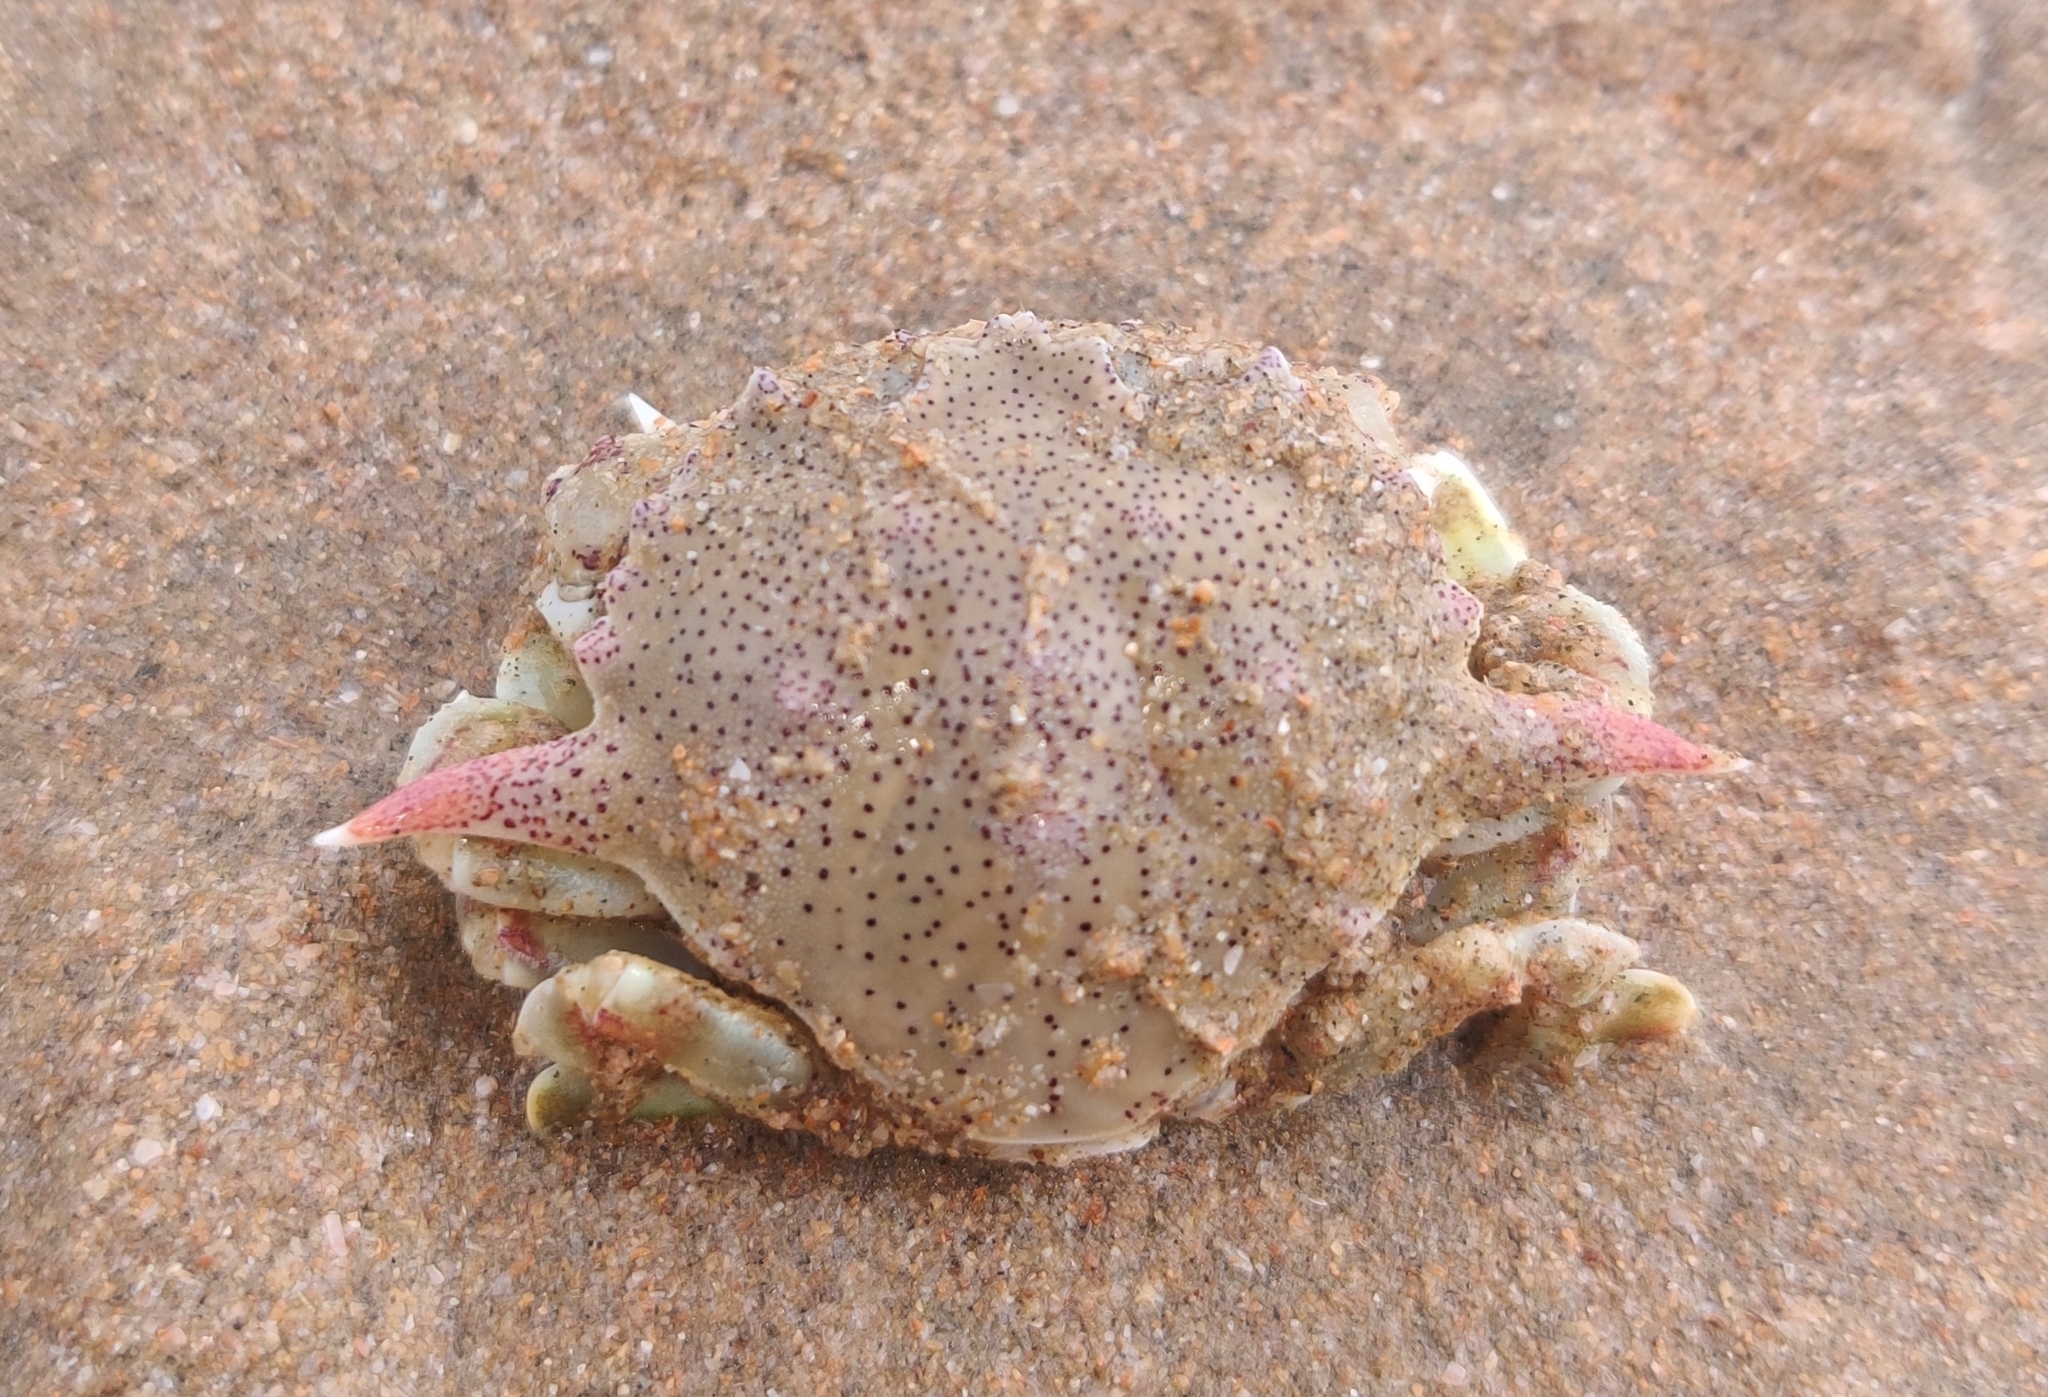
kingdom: Animalia
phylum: Arthropoda
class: Malacostraca
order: Decapoda
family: Matutidae
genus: Matuta
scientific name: Matuta victor
